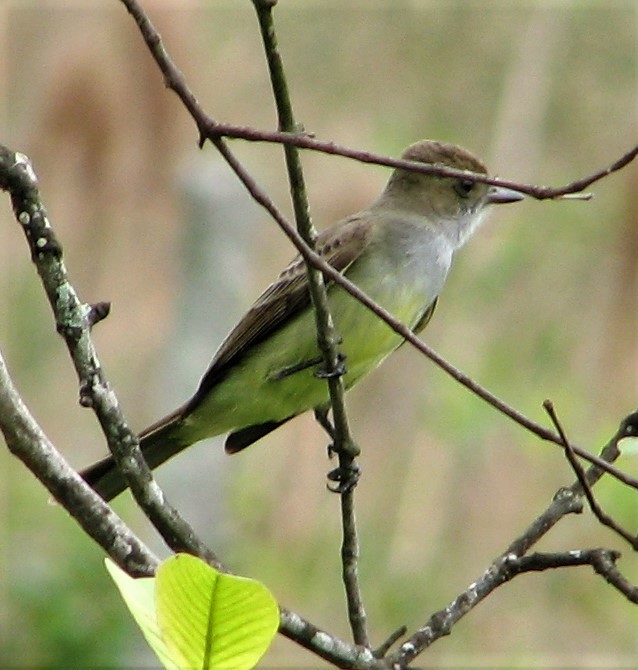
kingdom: Animalia
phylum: Chordata
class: Aves
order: Passeriformes
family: Tyrannidae
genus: Myiarchus
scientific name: Myiarchus swainsoni
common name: Swainson's flycatcher
